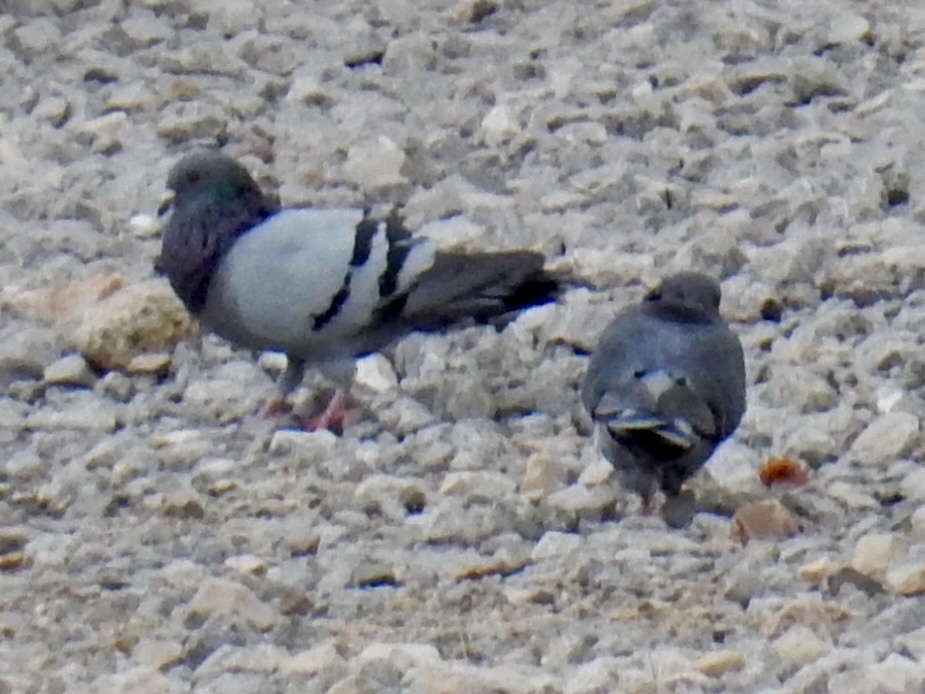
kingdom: Animalia
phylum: Chordata
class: Aves
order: Columbiformes
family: Columbidae
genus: Columba
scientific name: Columba livia
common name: Rock pigeon
